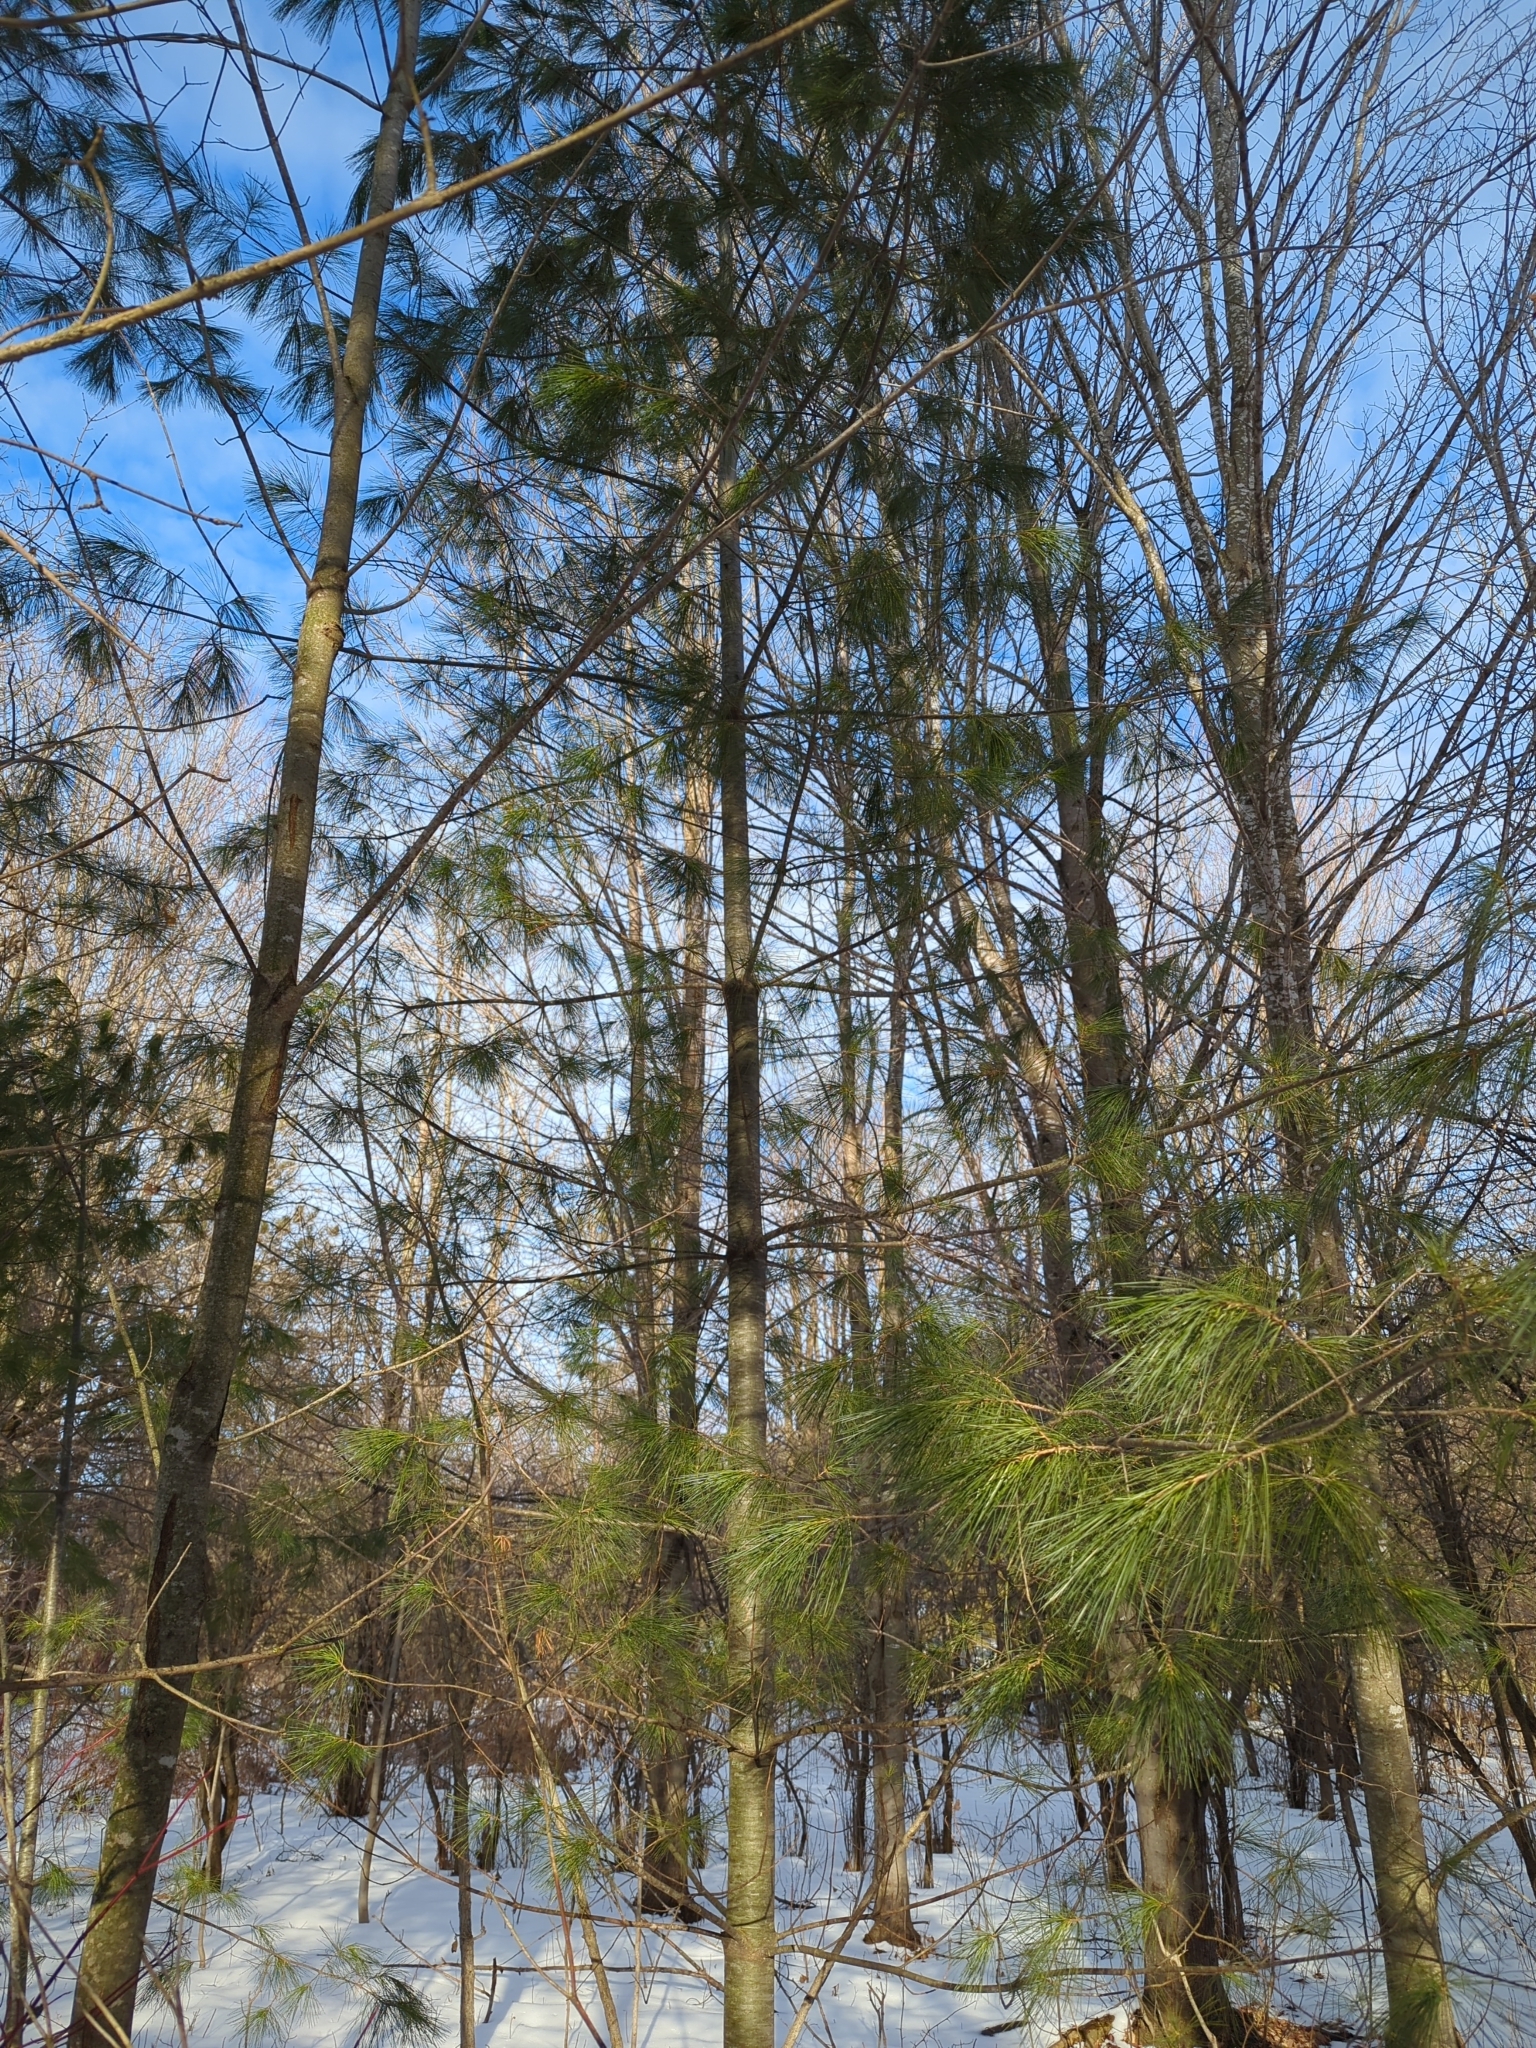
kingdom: Plantae
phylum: Tracheophyta
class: Pinopsida
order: Pinales
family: Pinaceae
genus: Pinus
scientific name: Pinus strobus
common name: Weymouth pine
